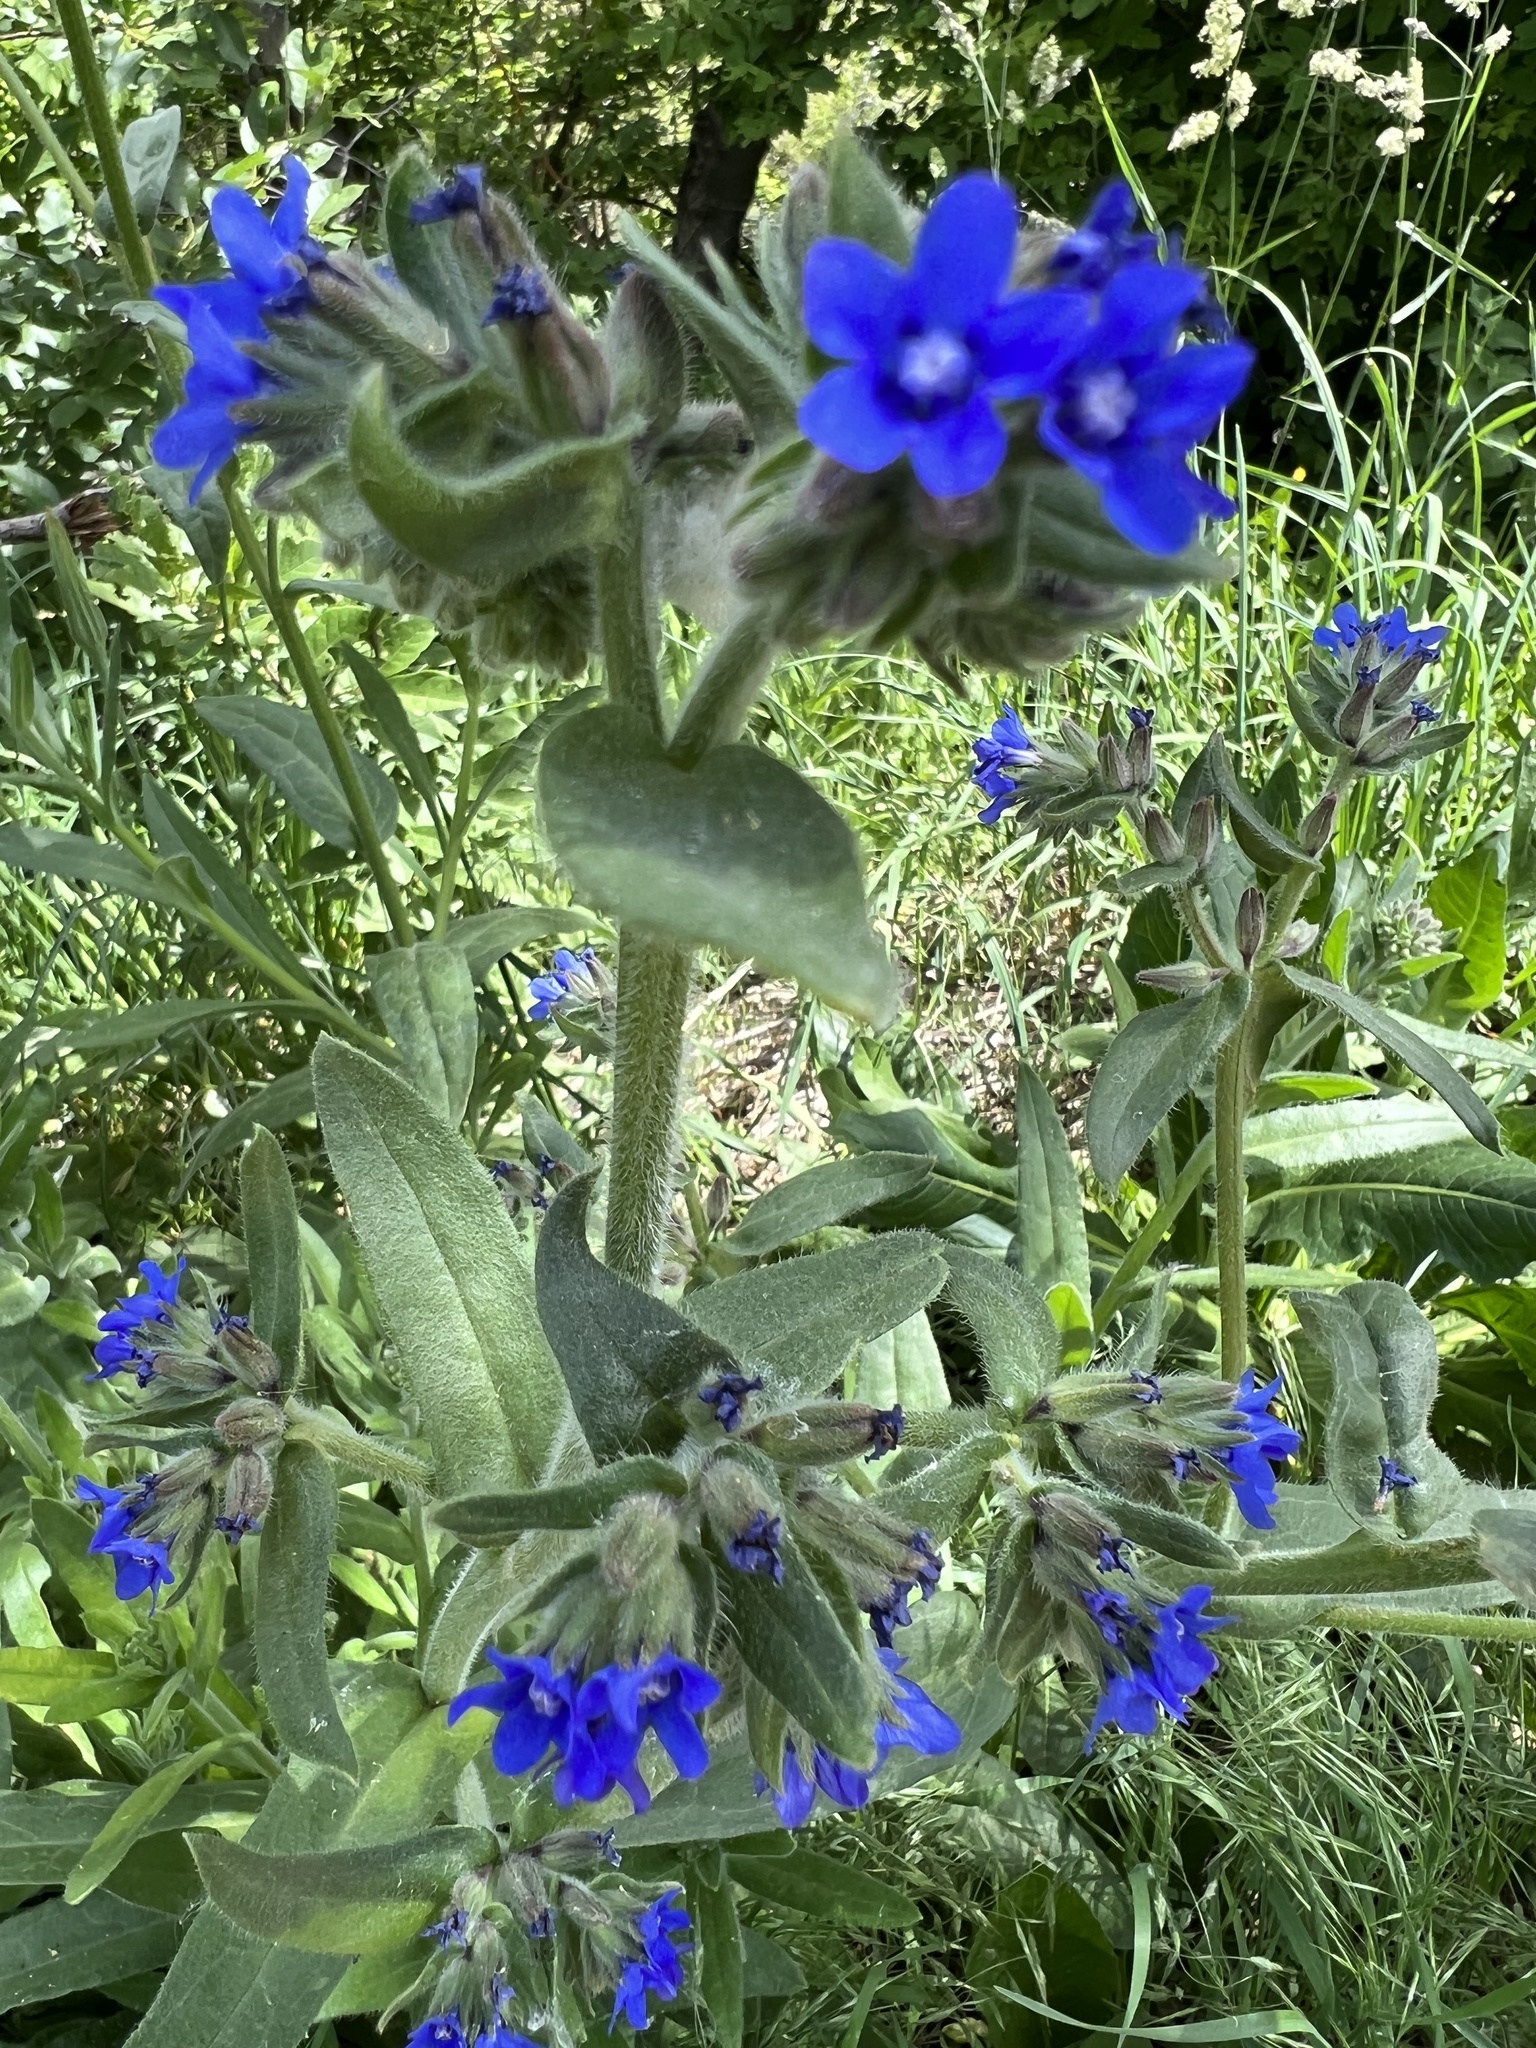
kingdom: Plantae
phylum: Tracheophyta
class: Magnoliopsida
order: Boraginales
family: Boraginaceae
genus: Anchusa
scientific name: Anchusa officinalis
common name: Alkanet
